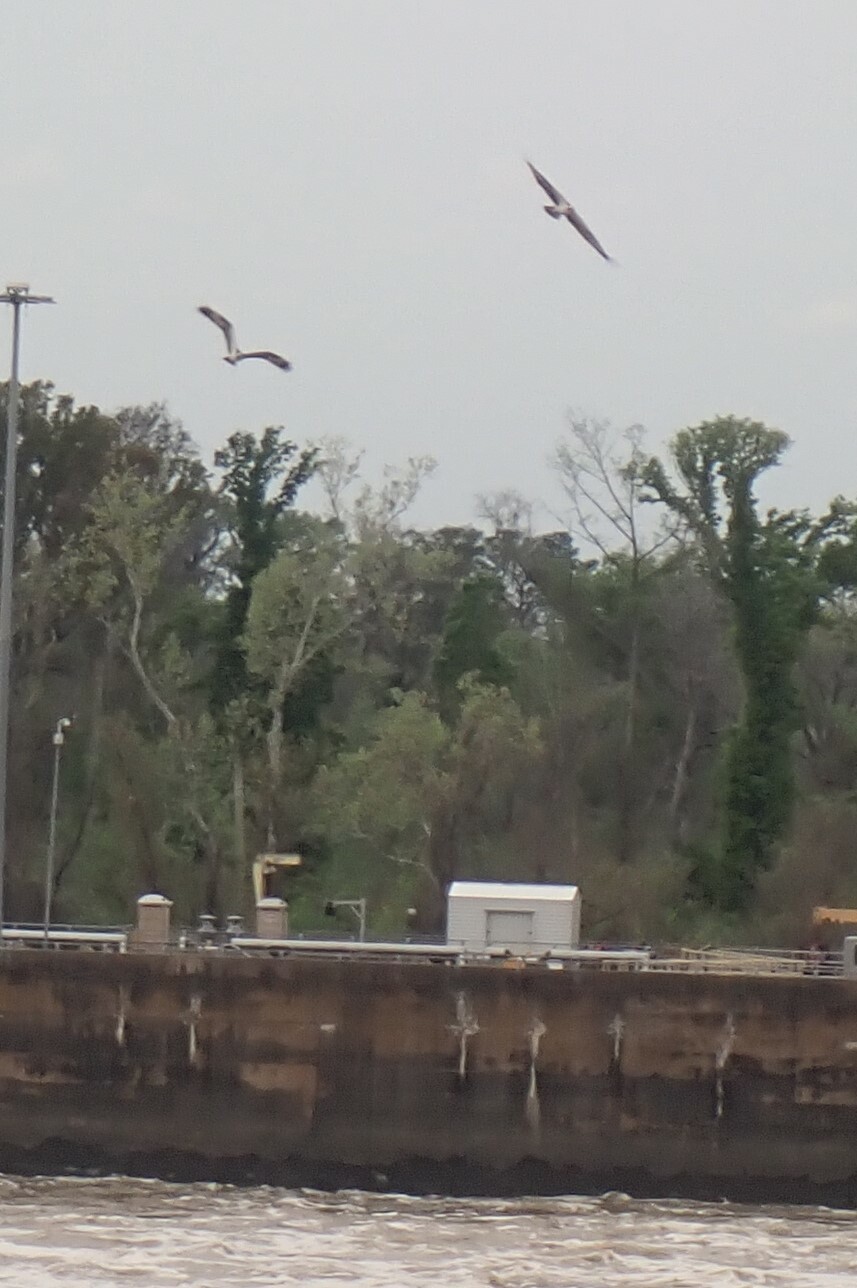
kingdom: Animalia
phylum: Chordata
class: Aves
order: Accipitriformes
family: Pandionidae
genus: Pandion
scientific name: Pandion haliaetus
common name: Osprey
